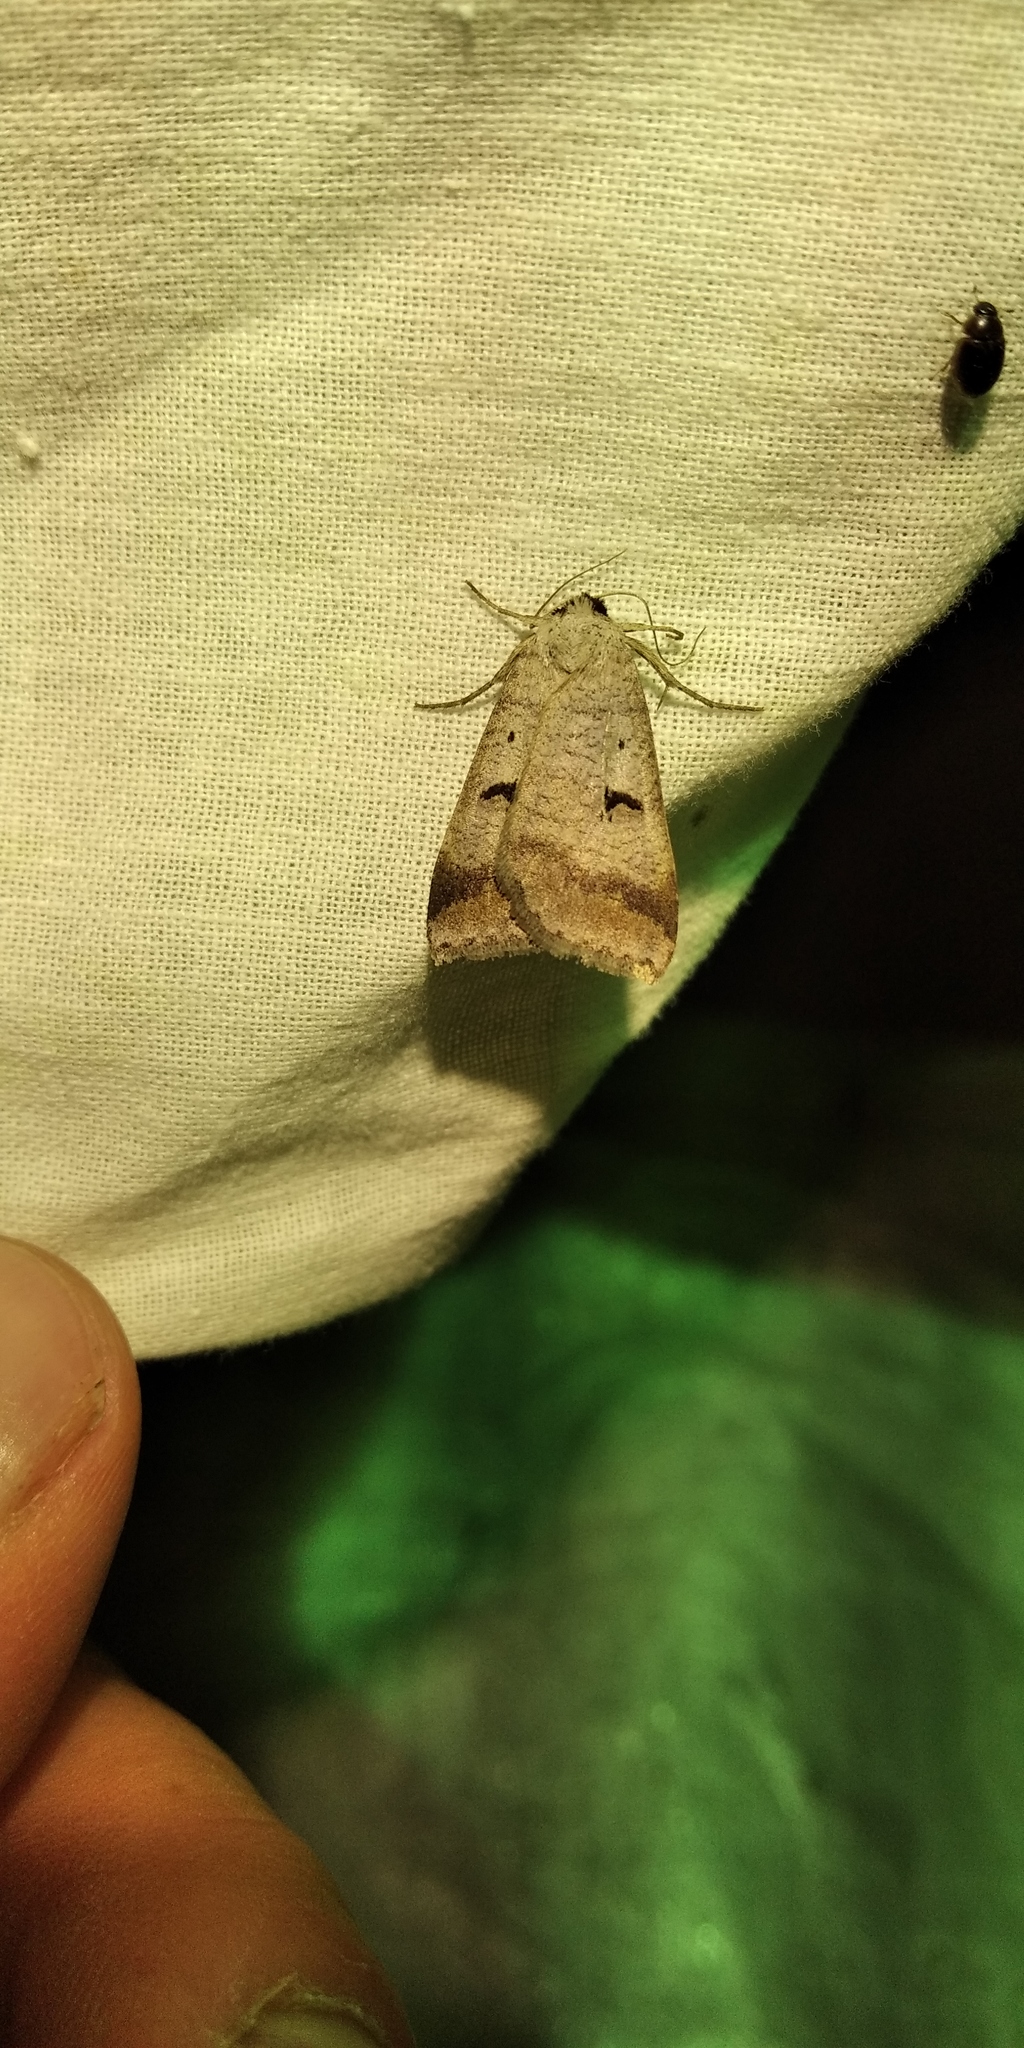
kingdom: Animalia
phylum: Arthropoda
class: Insecta
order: Lepidoptera
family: Erebidae
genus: Lygephila
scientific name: Lygephila pastinum
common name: Blackneck
